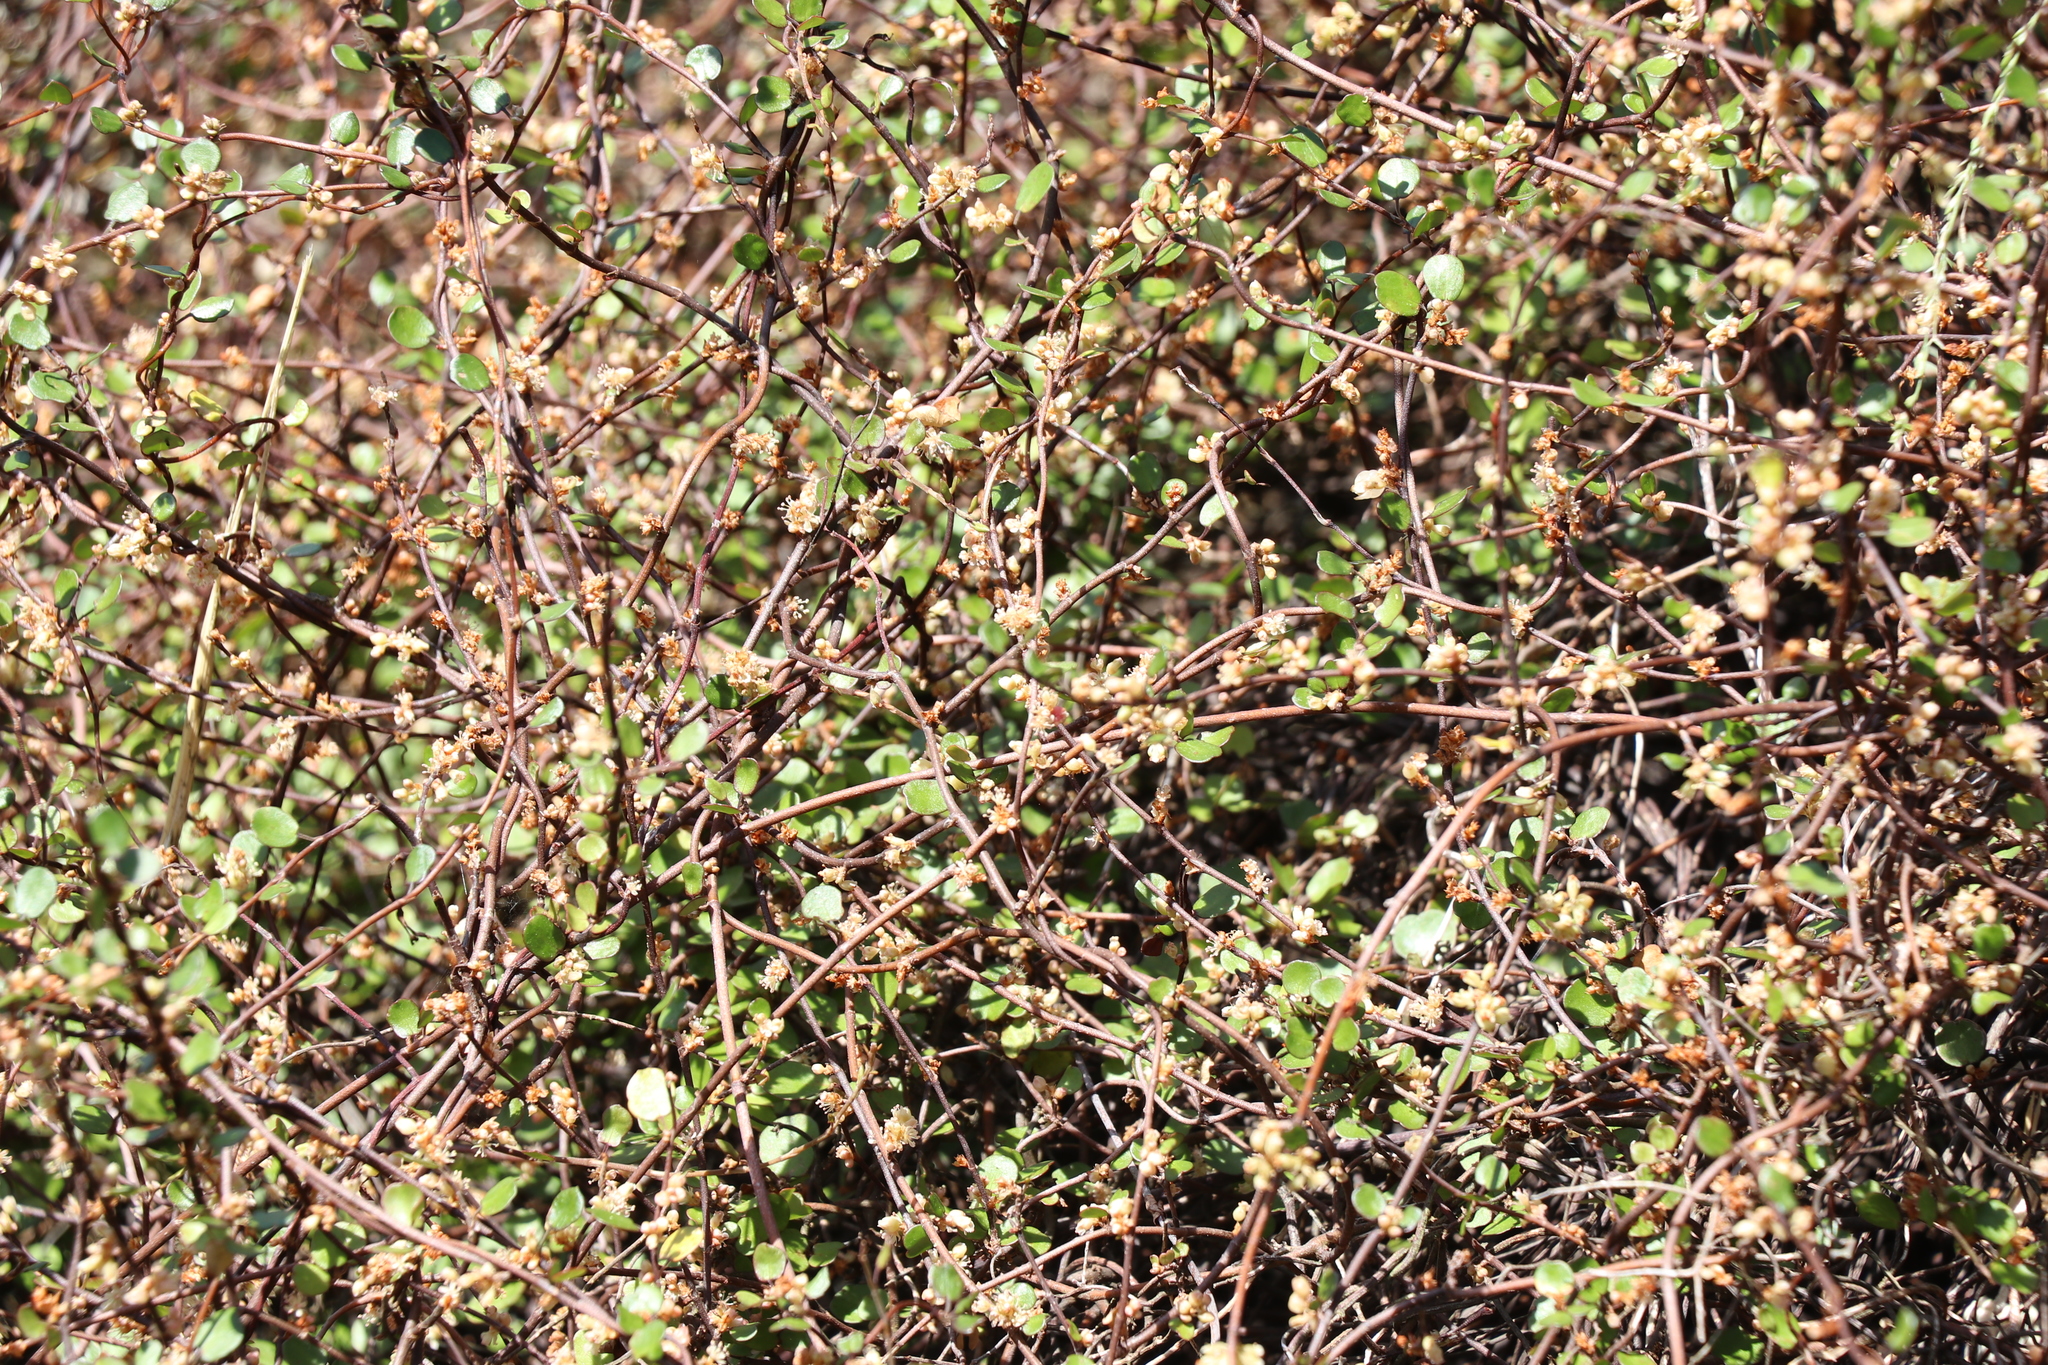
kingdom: Plantae
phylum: Tracheophyta
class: Magnoliopsida
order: Caryophyllales
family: Polygonaceae
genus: Muehlenbeckia
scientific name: Muehlenbeckia complexa
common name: Wireplant
